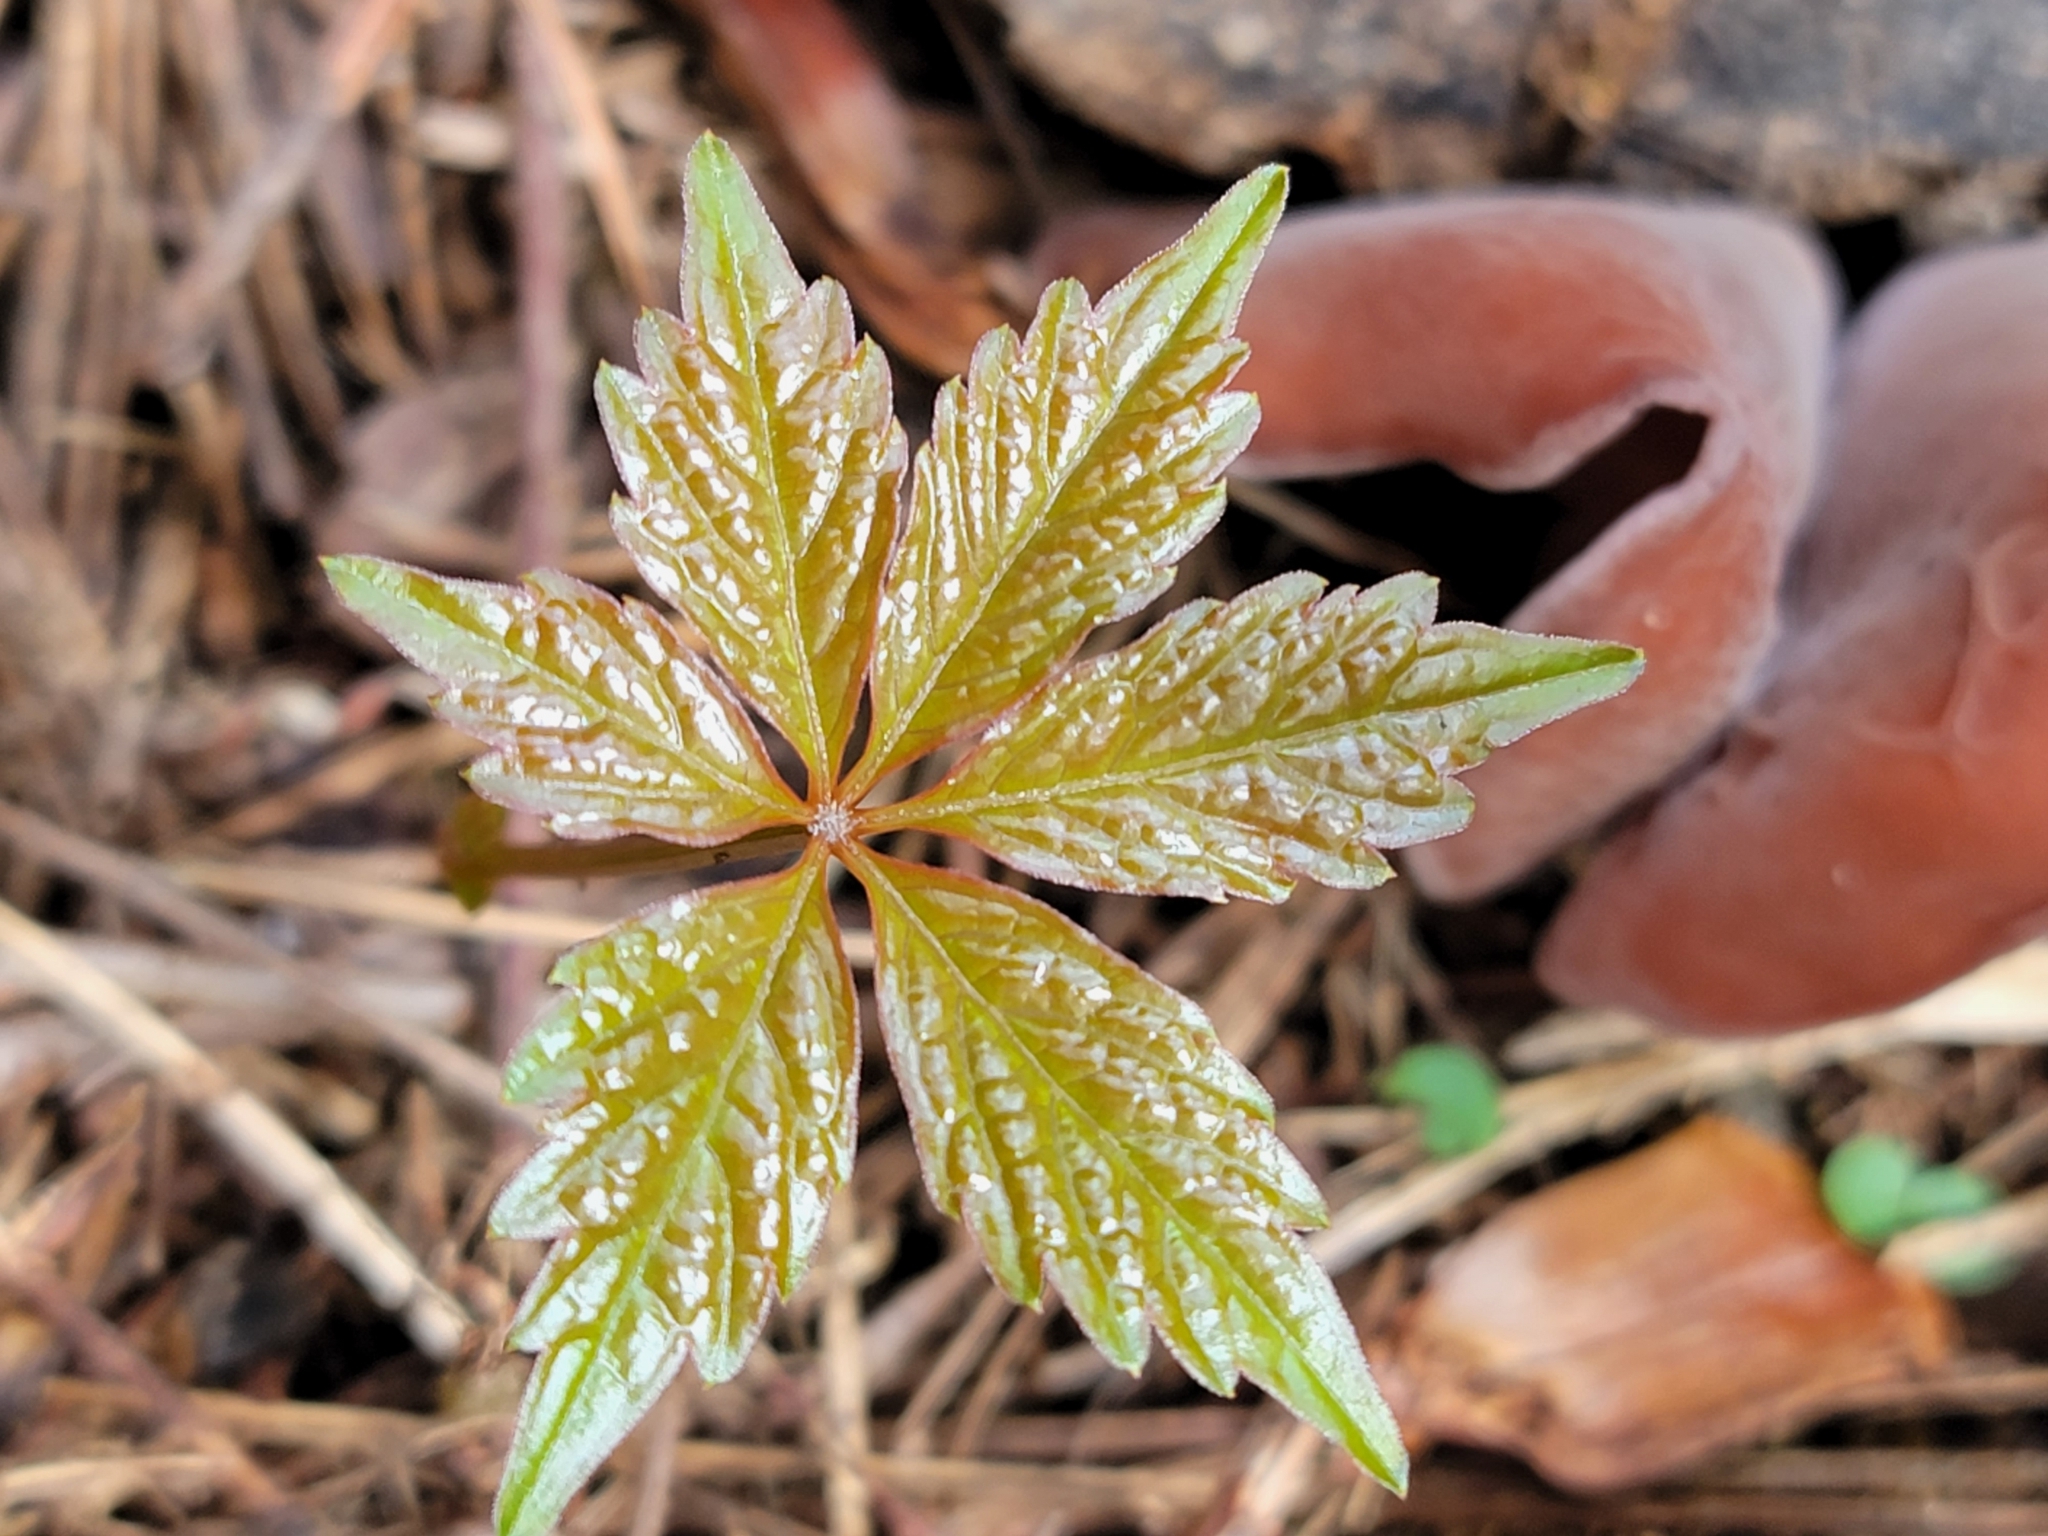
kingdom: Plantae
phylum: Tracheophyta
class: Magnoliopsida
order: Vitales
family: Vitaceae
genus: Parthenocissus
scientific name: Parthenocissus quinquefolia
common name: Virginia-creeper
